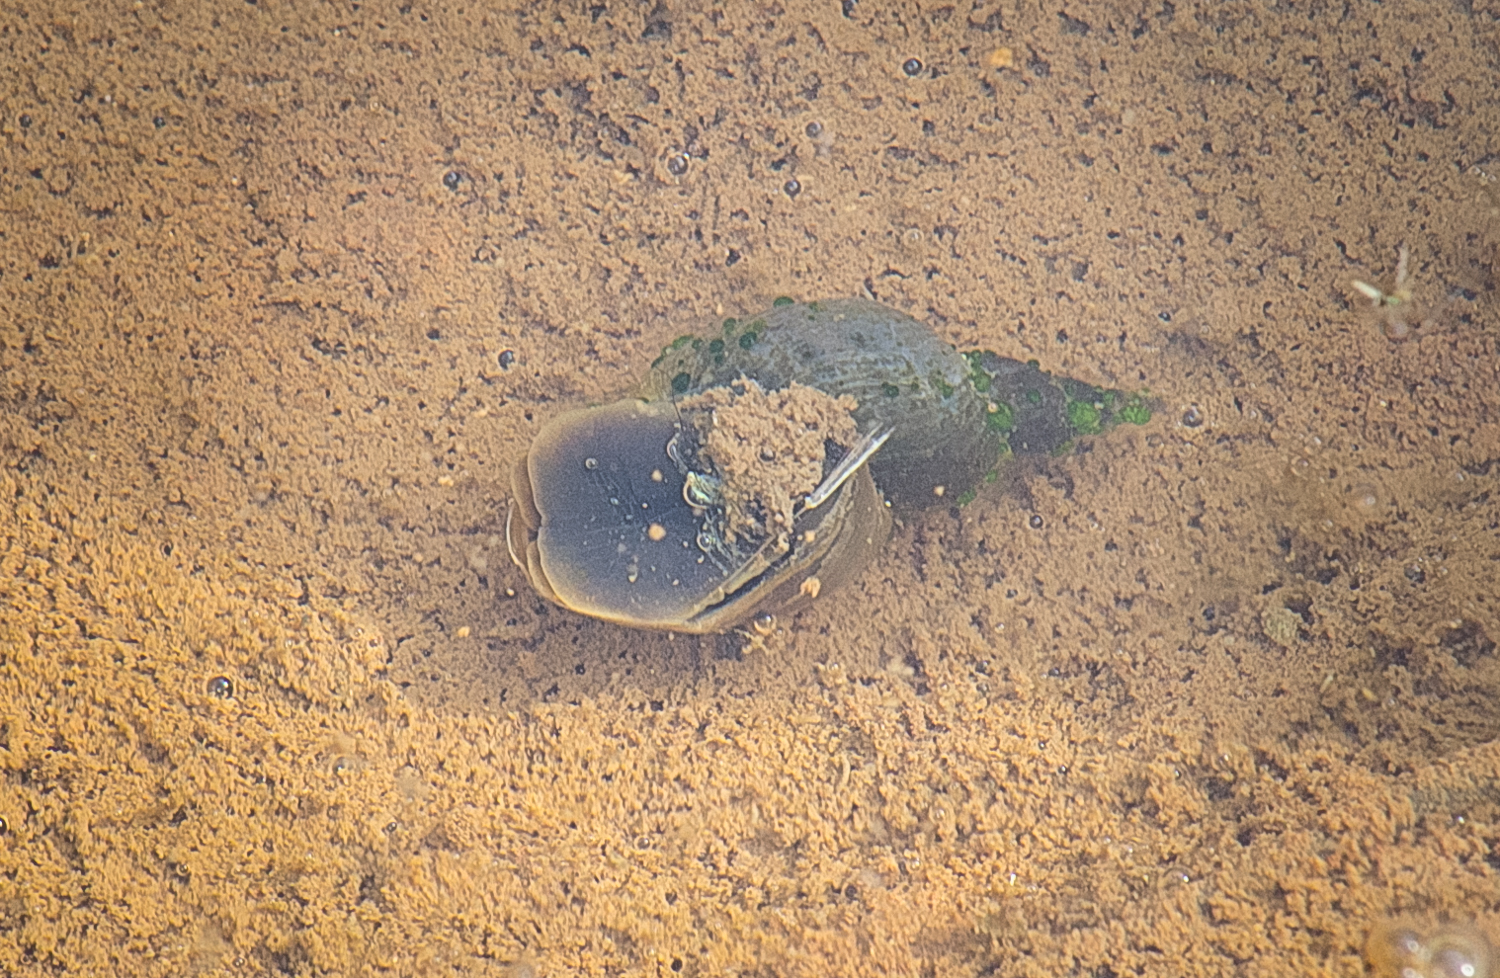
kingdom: Animalia
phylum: Mollusca
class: Gastropoda
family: Lymnaeidae
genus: Lymnaea
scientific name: Lymnaea stagnalis
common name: Great pond snail
